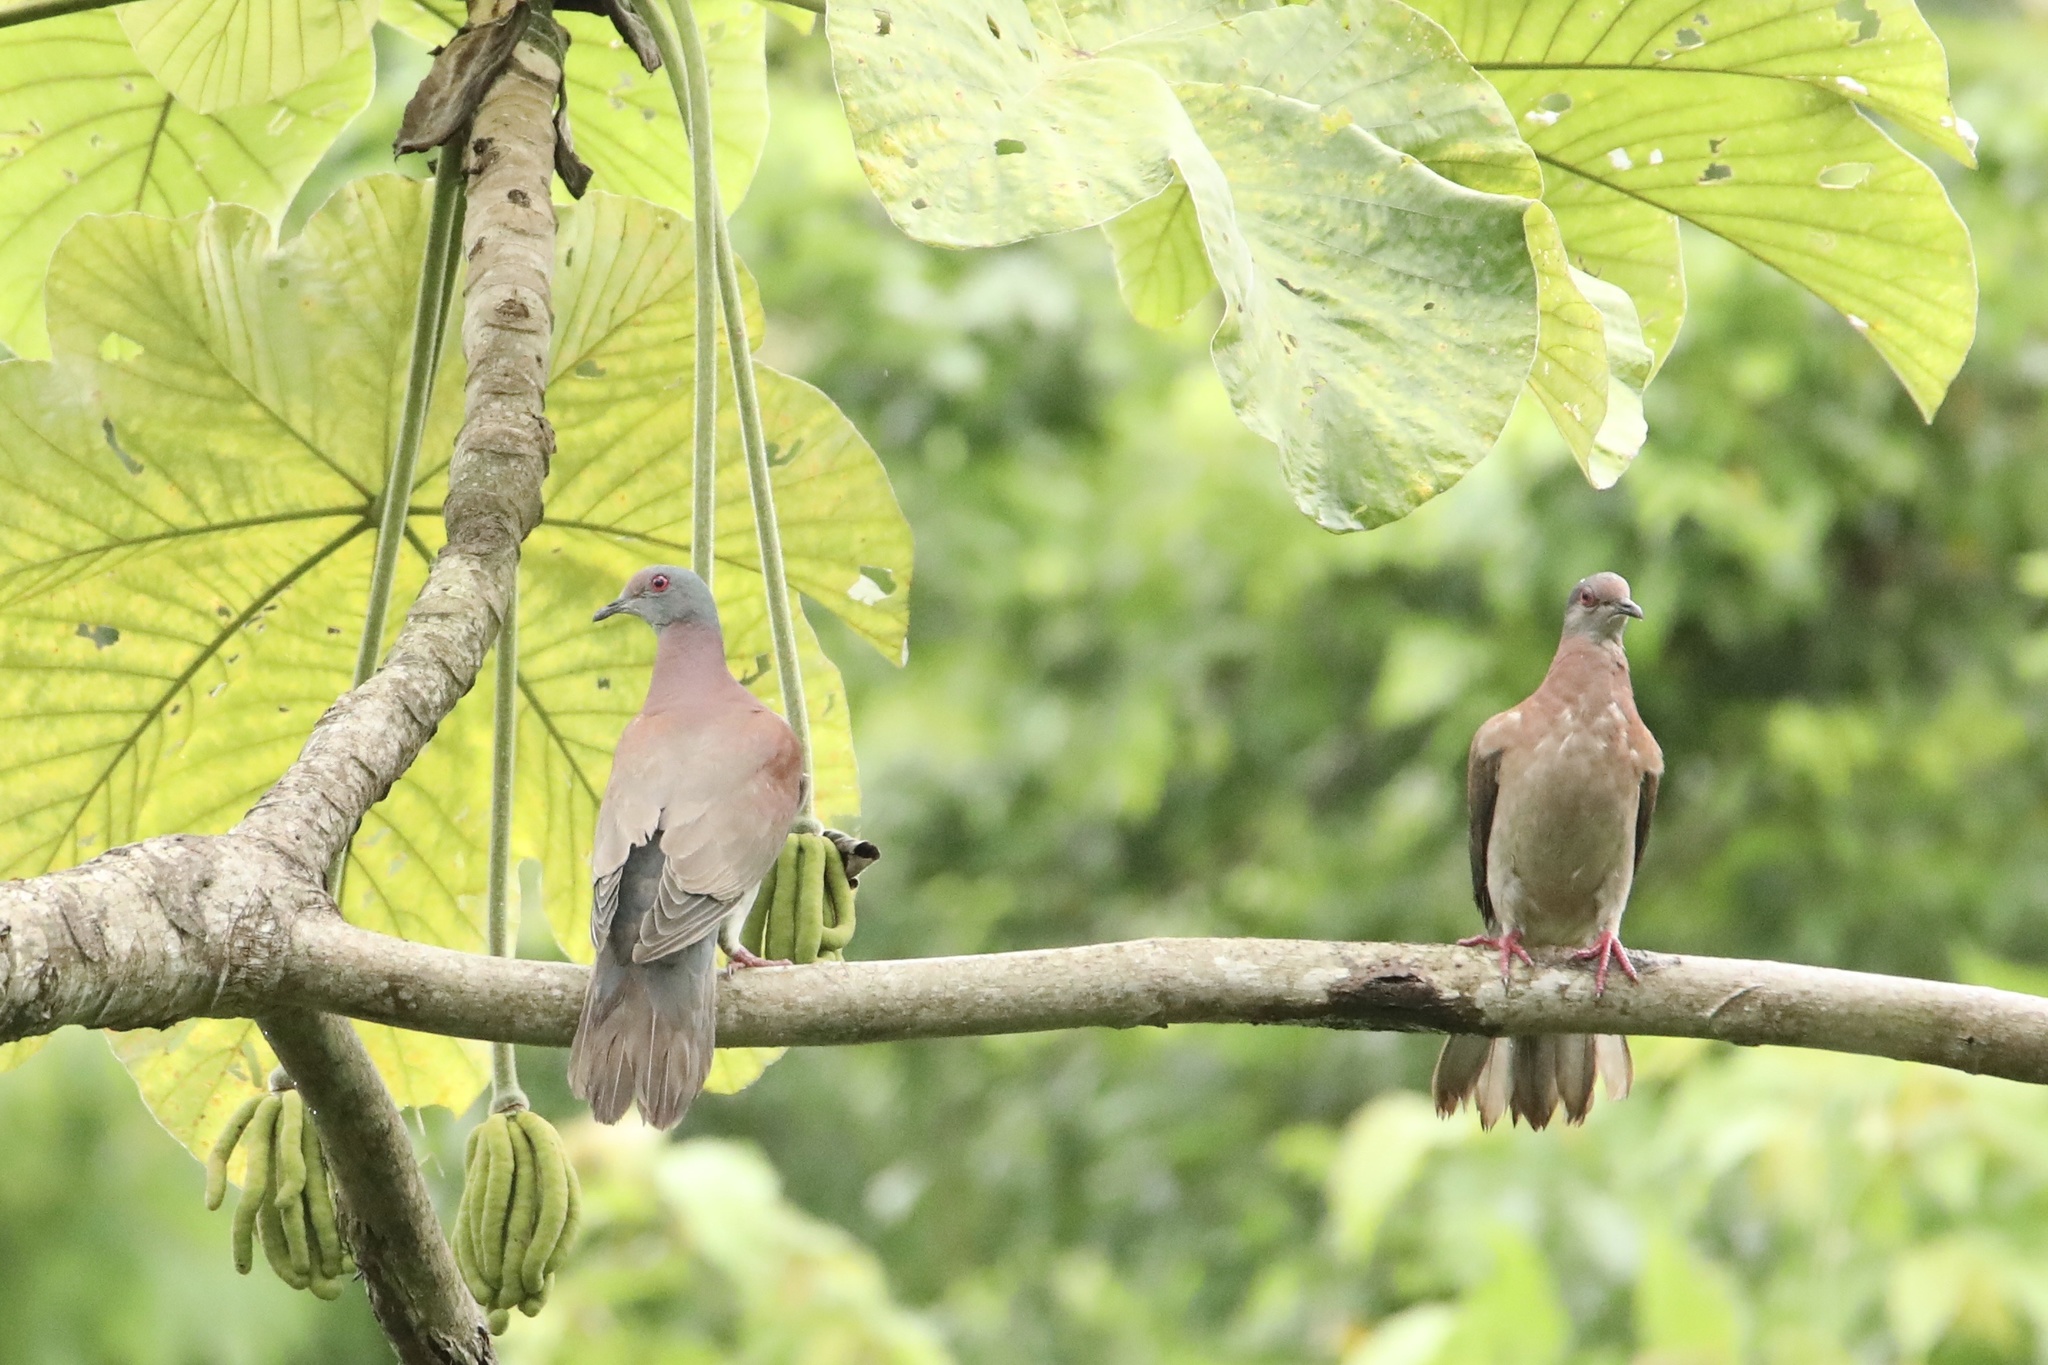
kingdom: Animalia
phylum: Chordata
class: Aves
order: Columbiformes
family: Columbidae
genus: Patagioenas
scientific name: Patagioenas cayennensis
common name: Pale-vented pigeon
